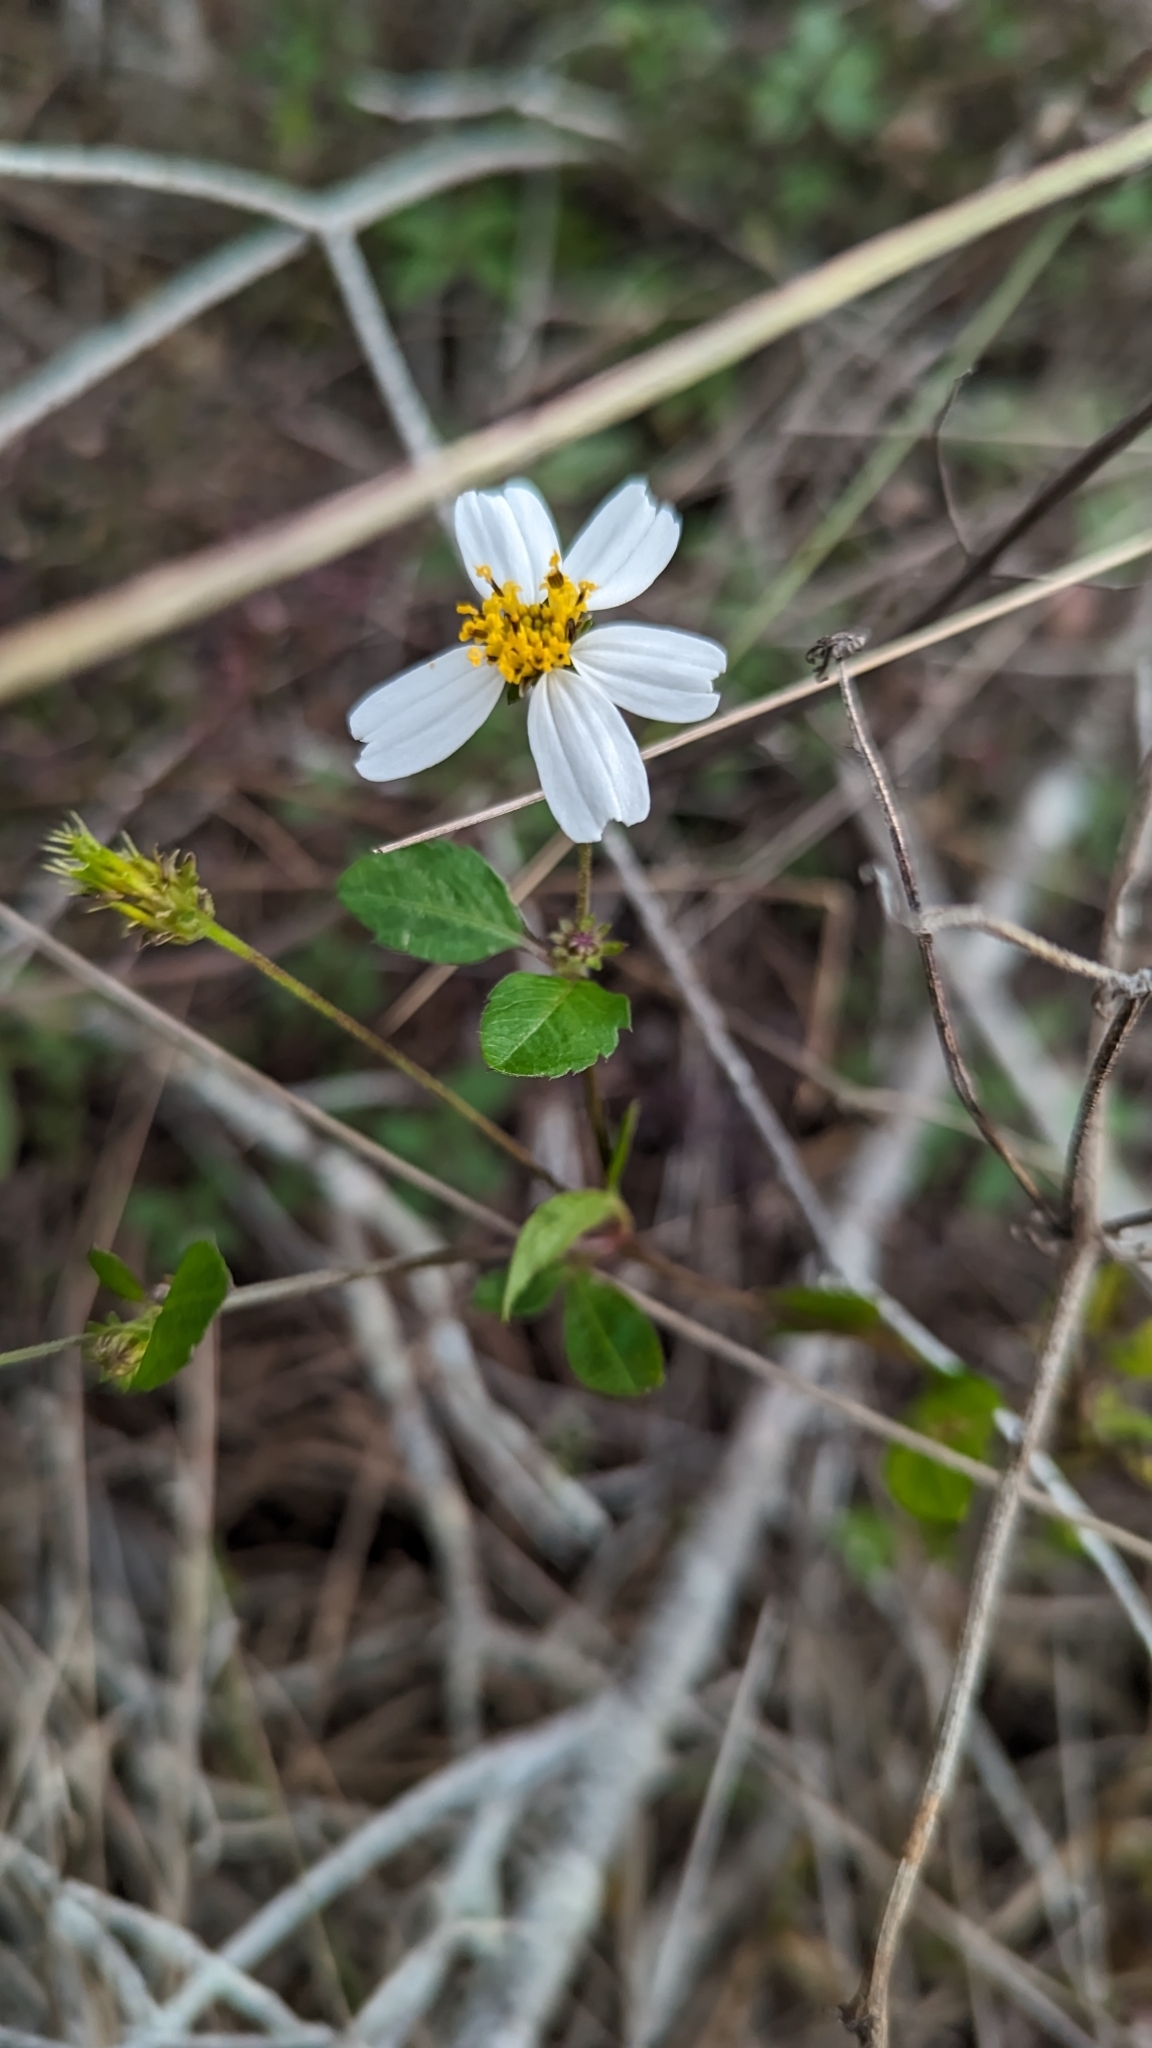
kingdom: Plantae
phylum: Tracheophyta
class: Magnoliopsida
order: Asterales
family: Asteraceae
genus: Bidens
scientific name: Bidens alba
